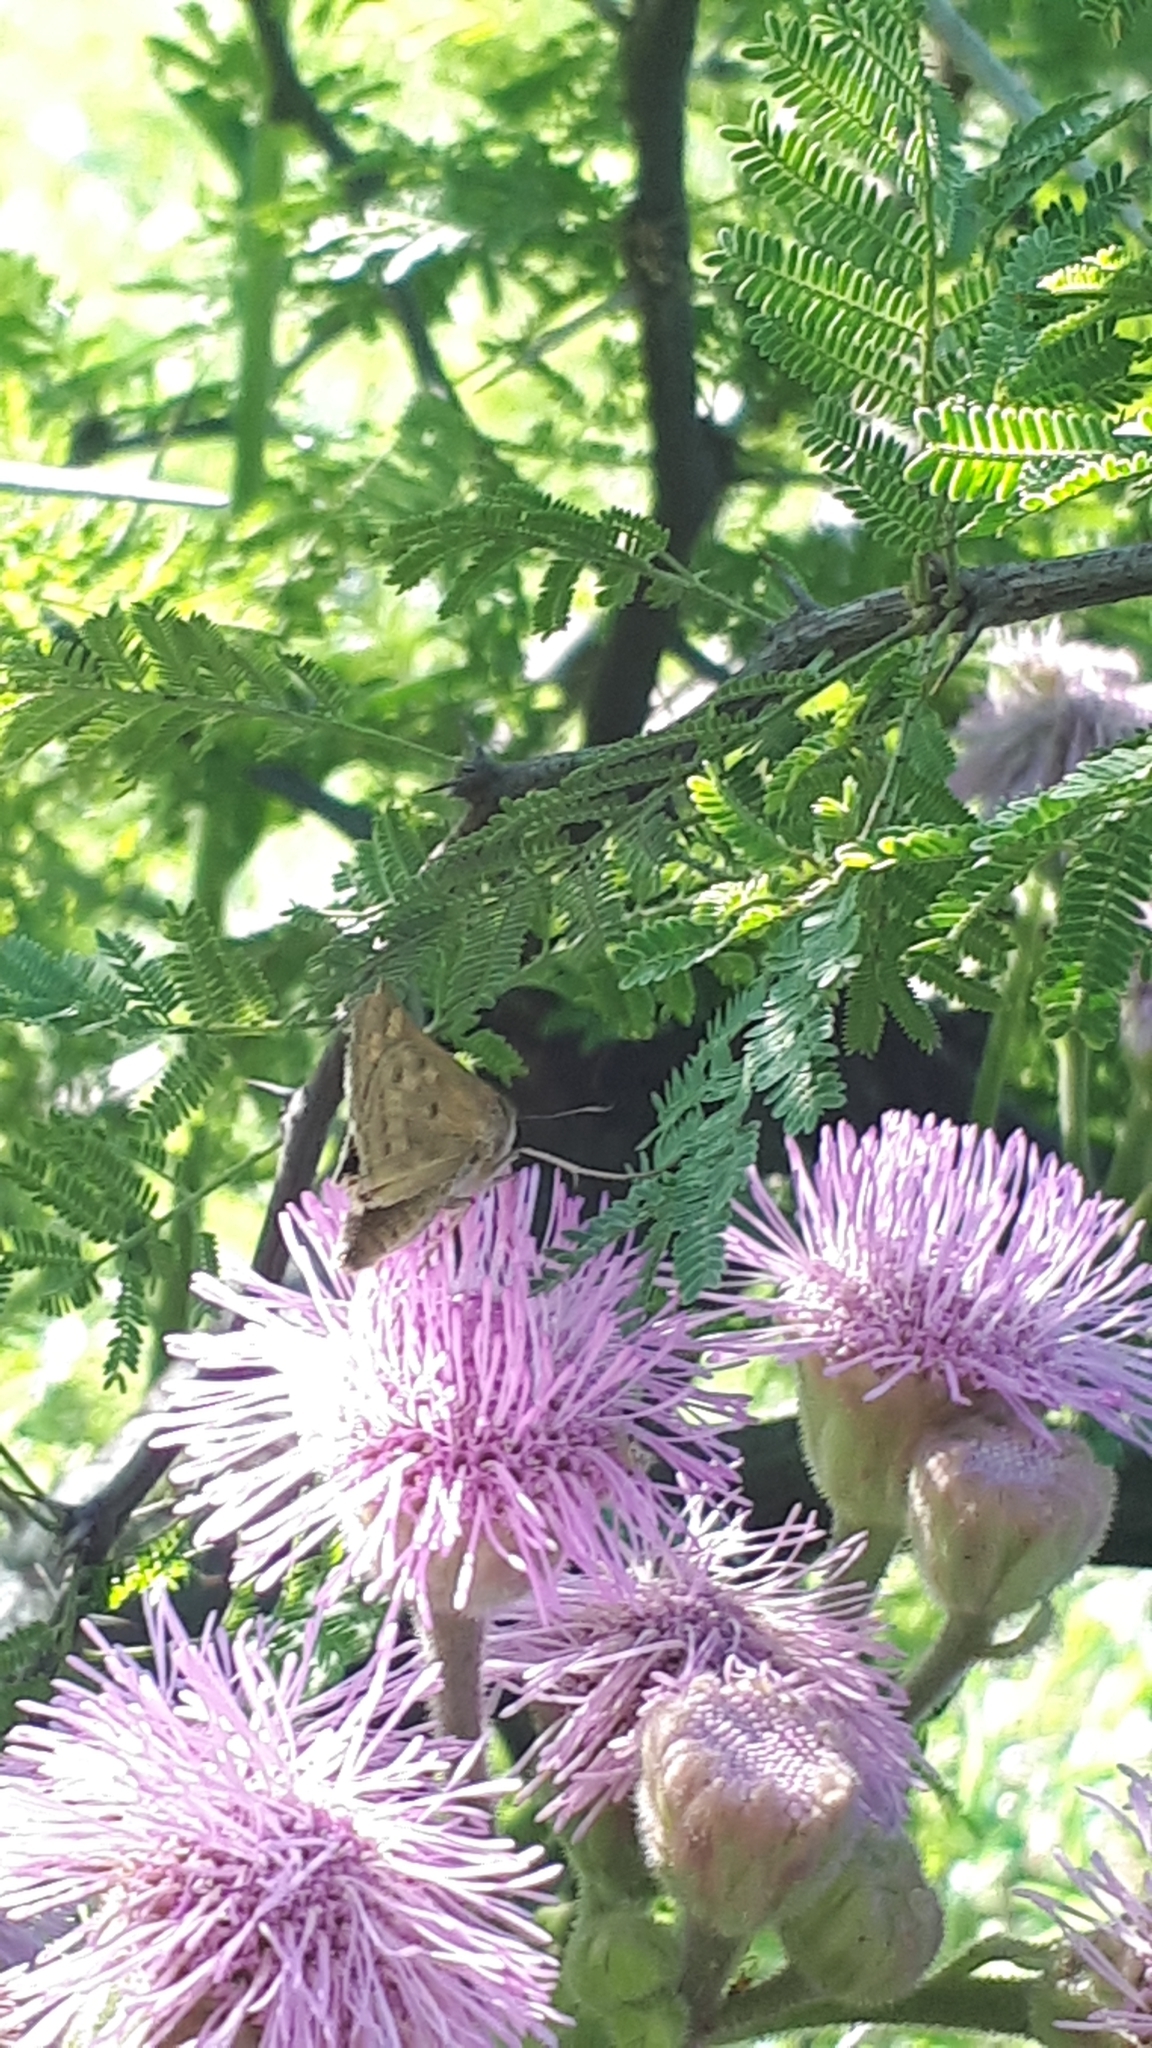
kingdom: Animalia
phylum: Arthropoda
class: Insecta
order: Lepidoptera
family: Hesperiidae
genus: Hylephila
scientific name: Hylephila phyleus
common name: Fiery skipper
